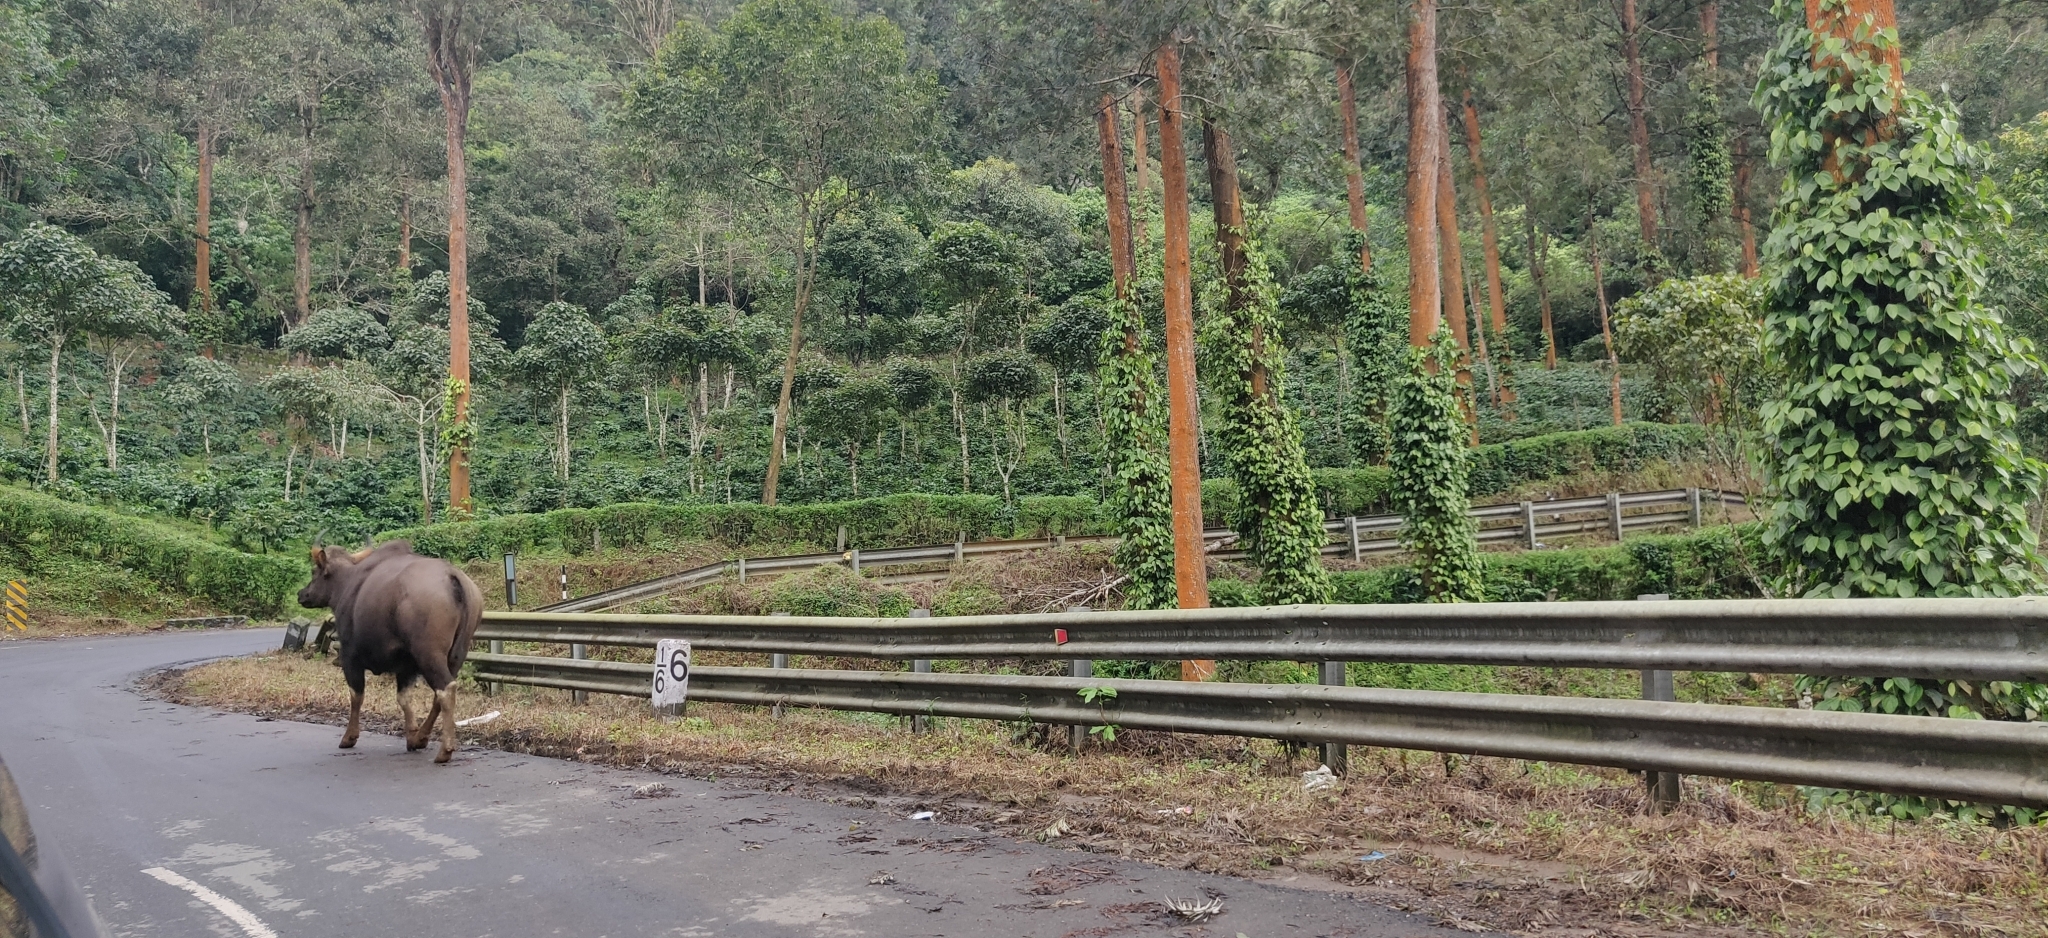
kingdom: Animalia
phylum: Chordata
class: Mammalia
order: Artiodactyla
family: Bovidae
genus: Bos
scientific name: Bos frontalis
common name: Gaur
